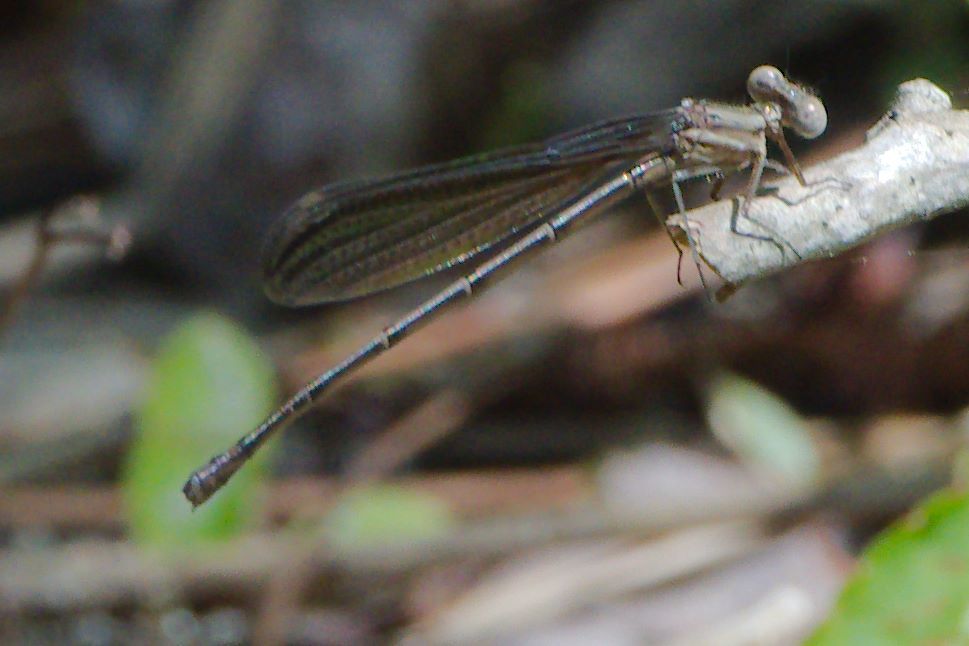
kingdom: Animalia
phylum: Arthropoda
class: Insecta
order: Odonata
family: Coenagrionidae
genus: Argia
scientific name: Argia fumipennis
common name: Variable dancer
